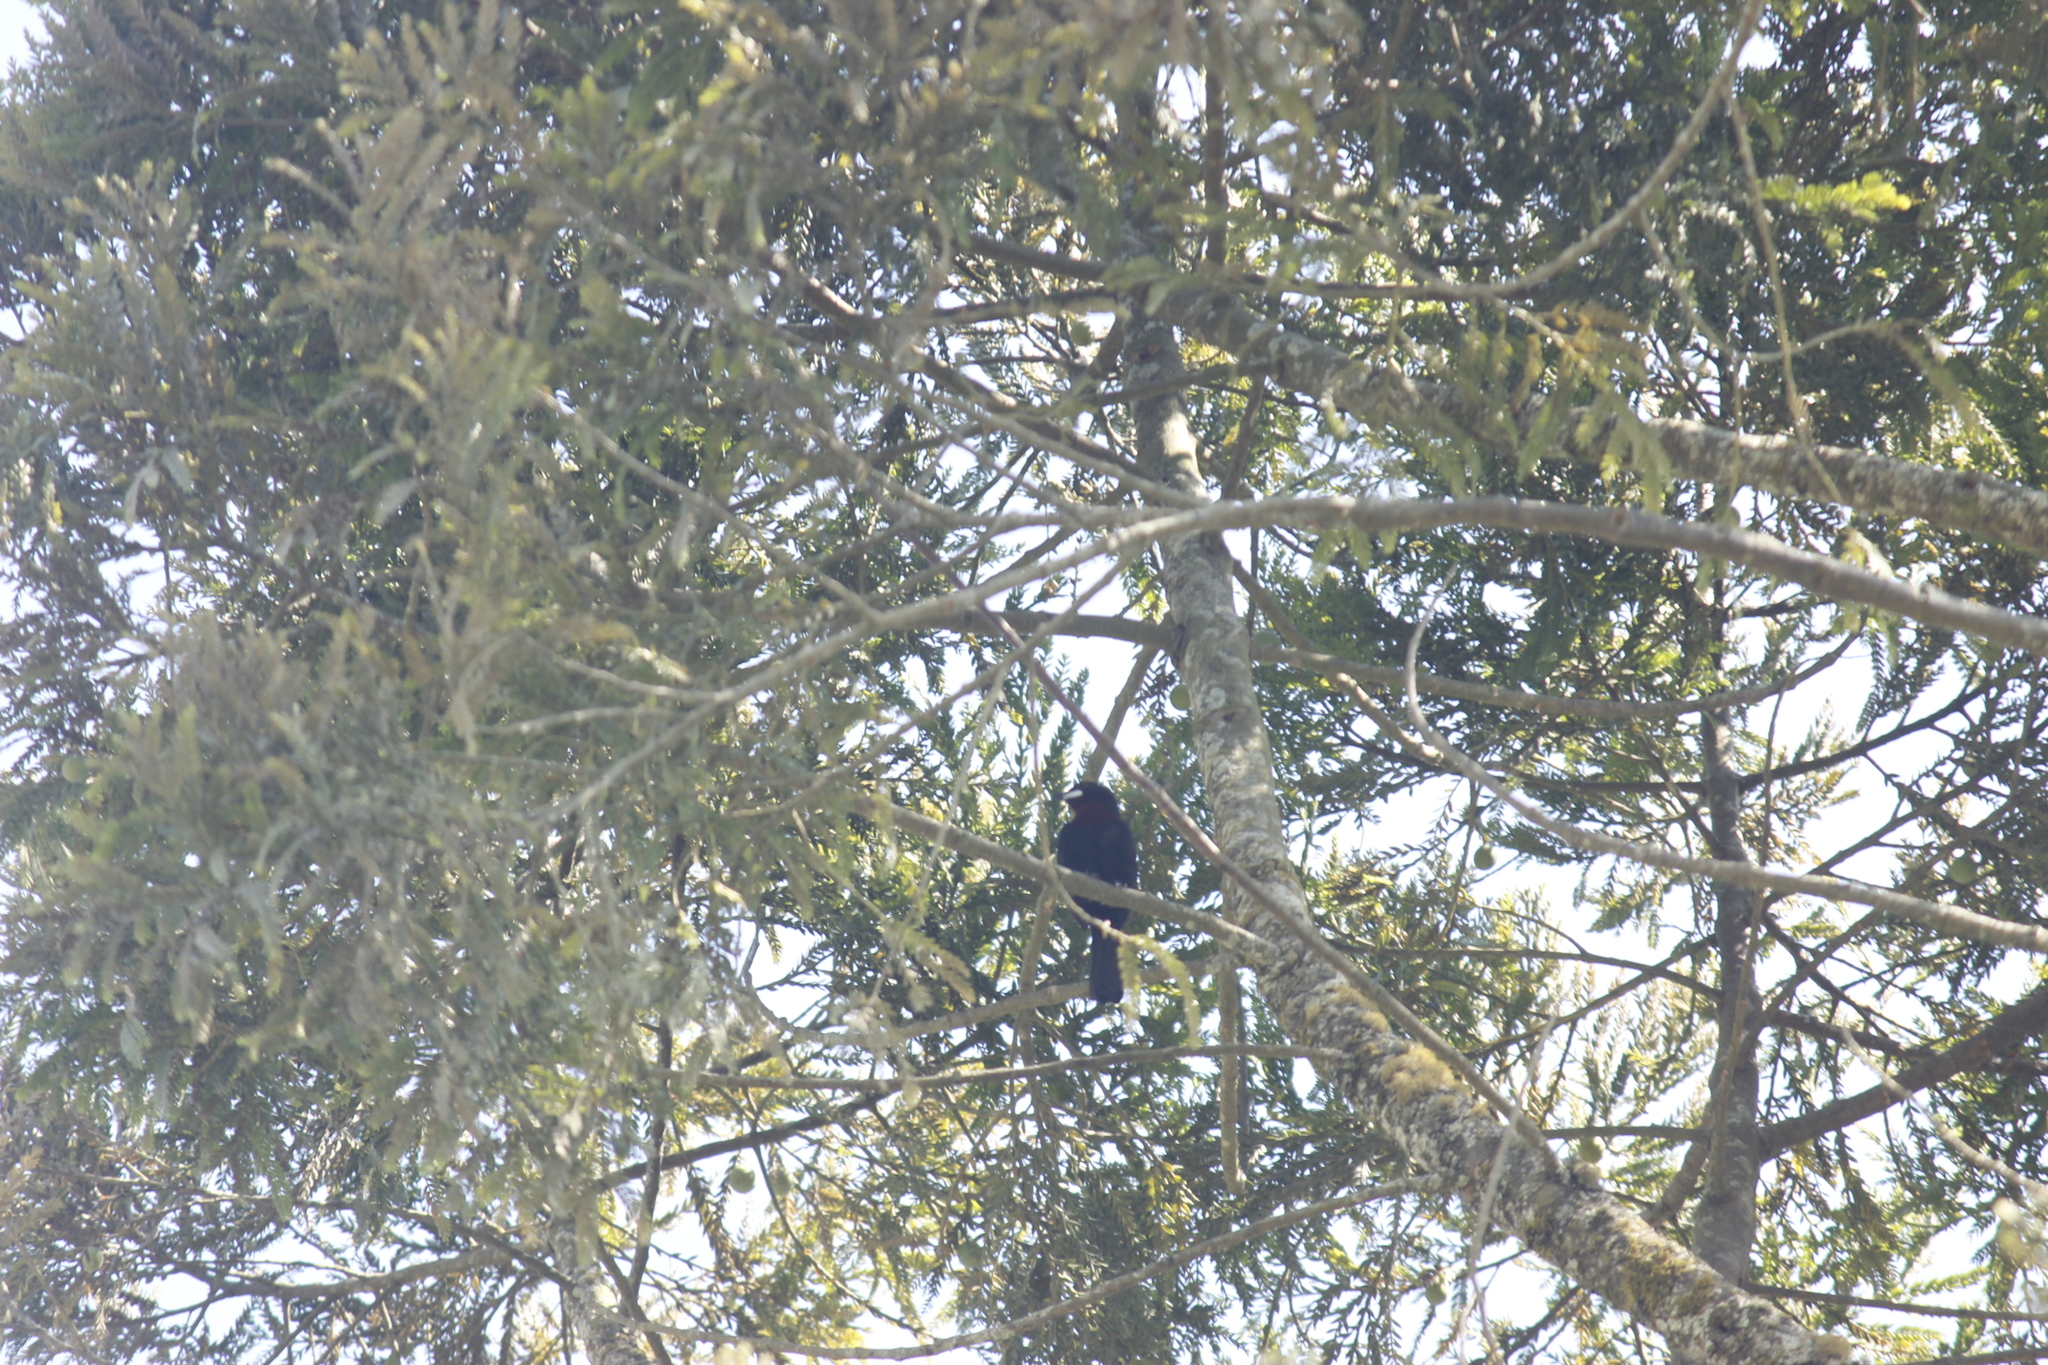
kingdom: Animalia
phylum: Chordata
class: Aves
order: Passeriformes
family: Thraupidae
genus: Ramphocelus
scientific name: Ramphocelus carbo
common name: Silver-beaked tanager
